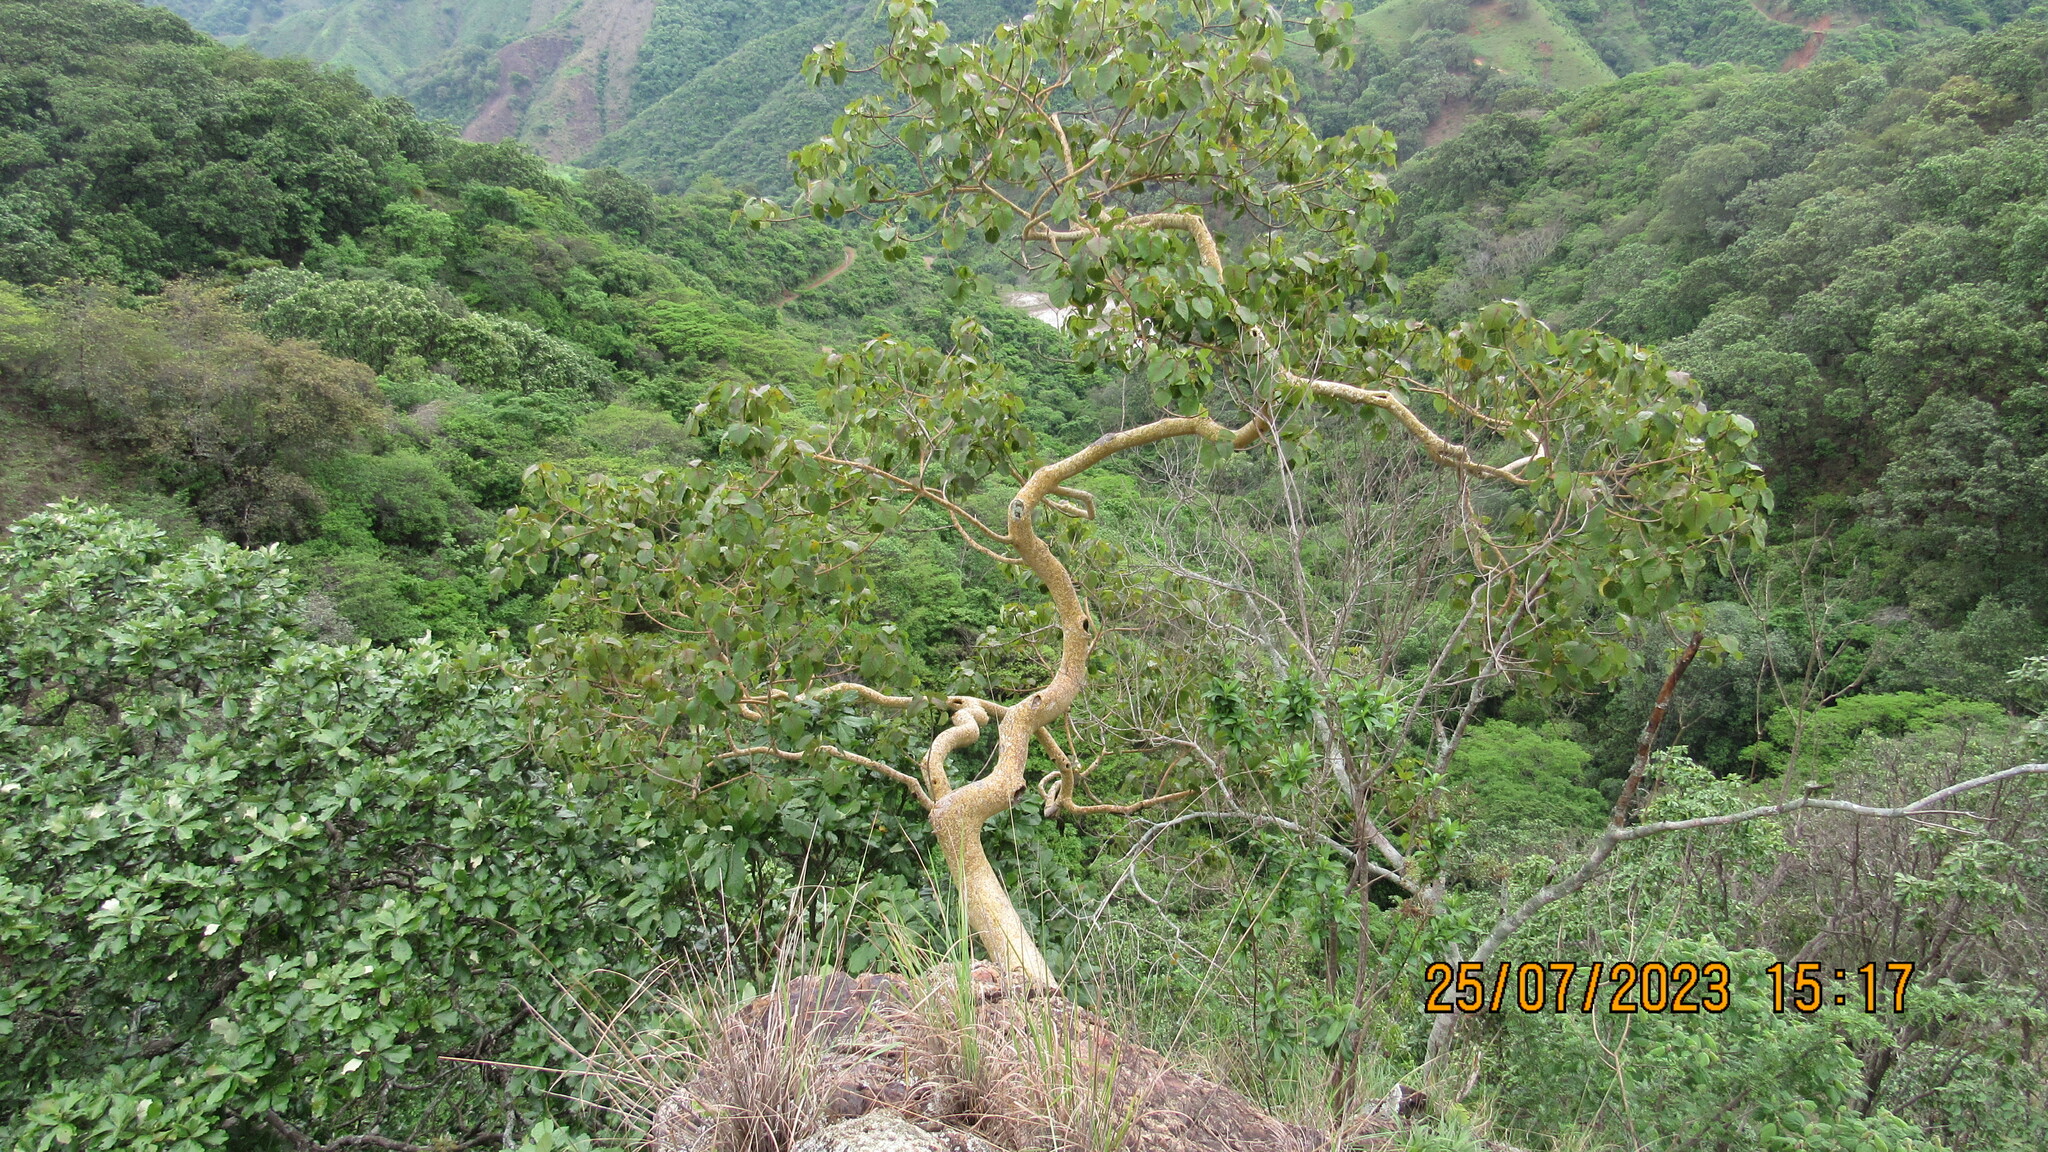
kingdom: Plantae
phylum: Tracheophyta
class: Magnoliopsida
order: Rosales
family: Moraceae
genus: Ficus
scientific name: Ficus petiolaris
